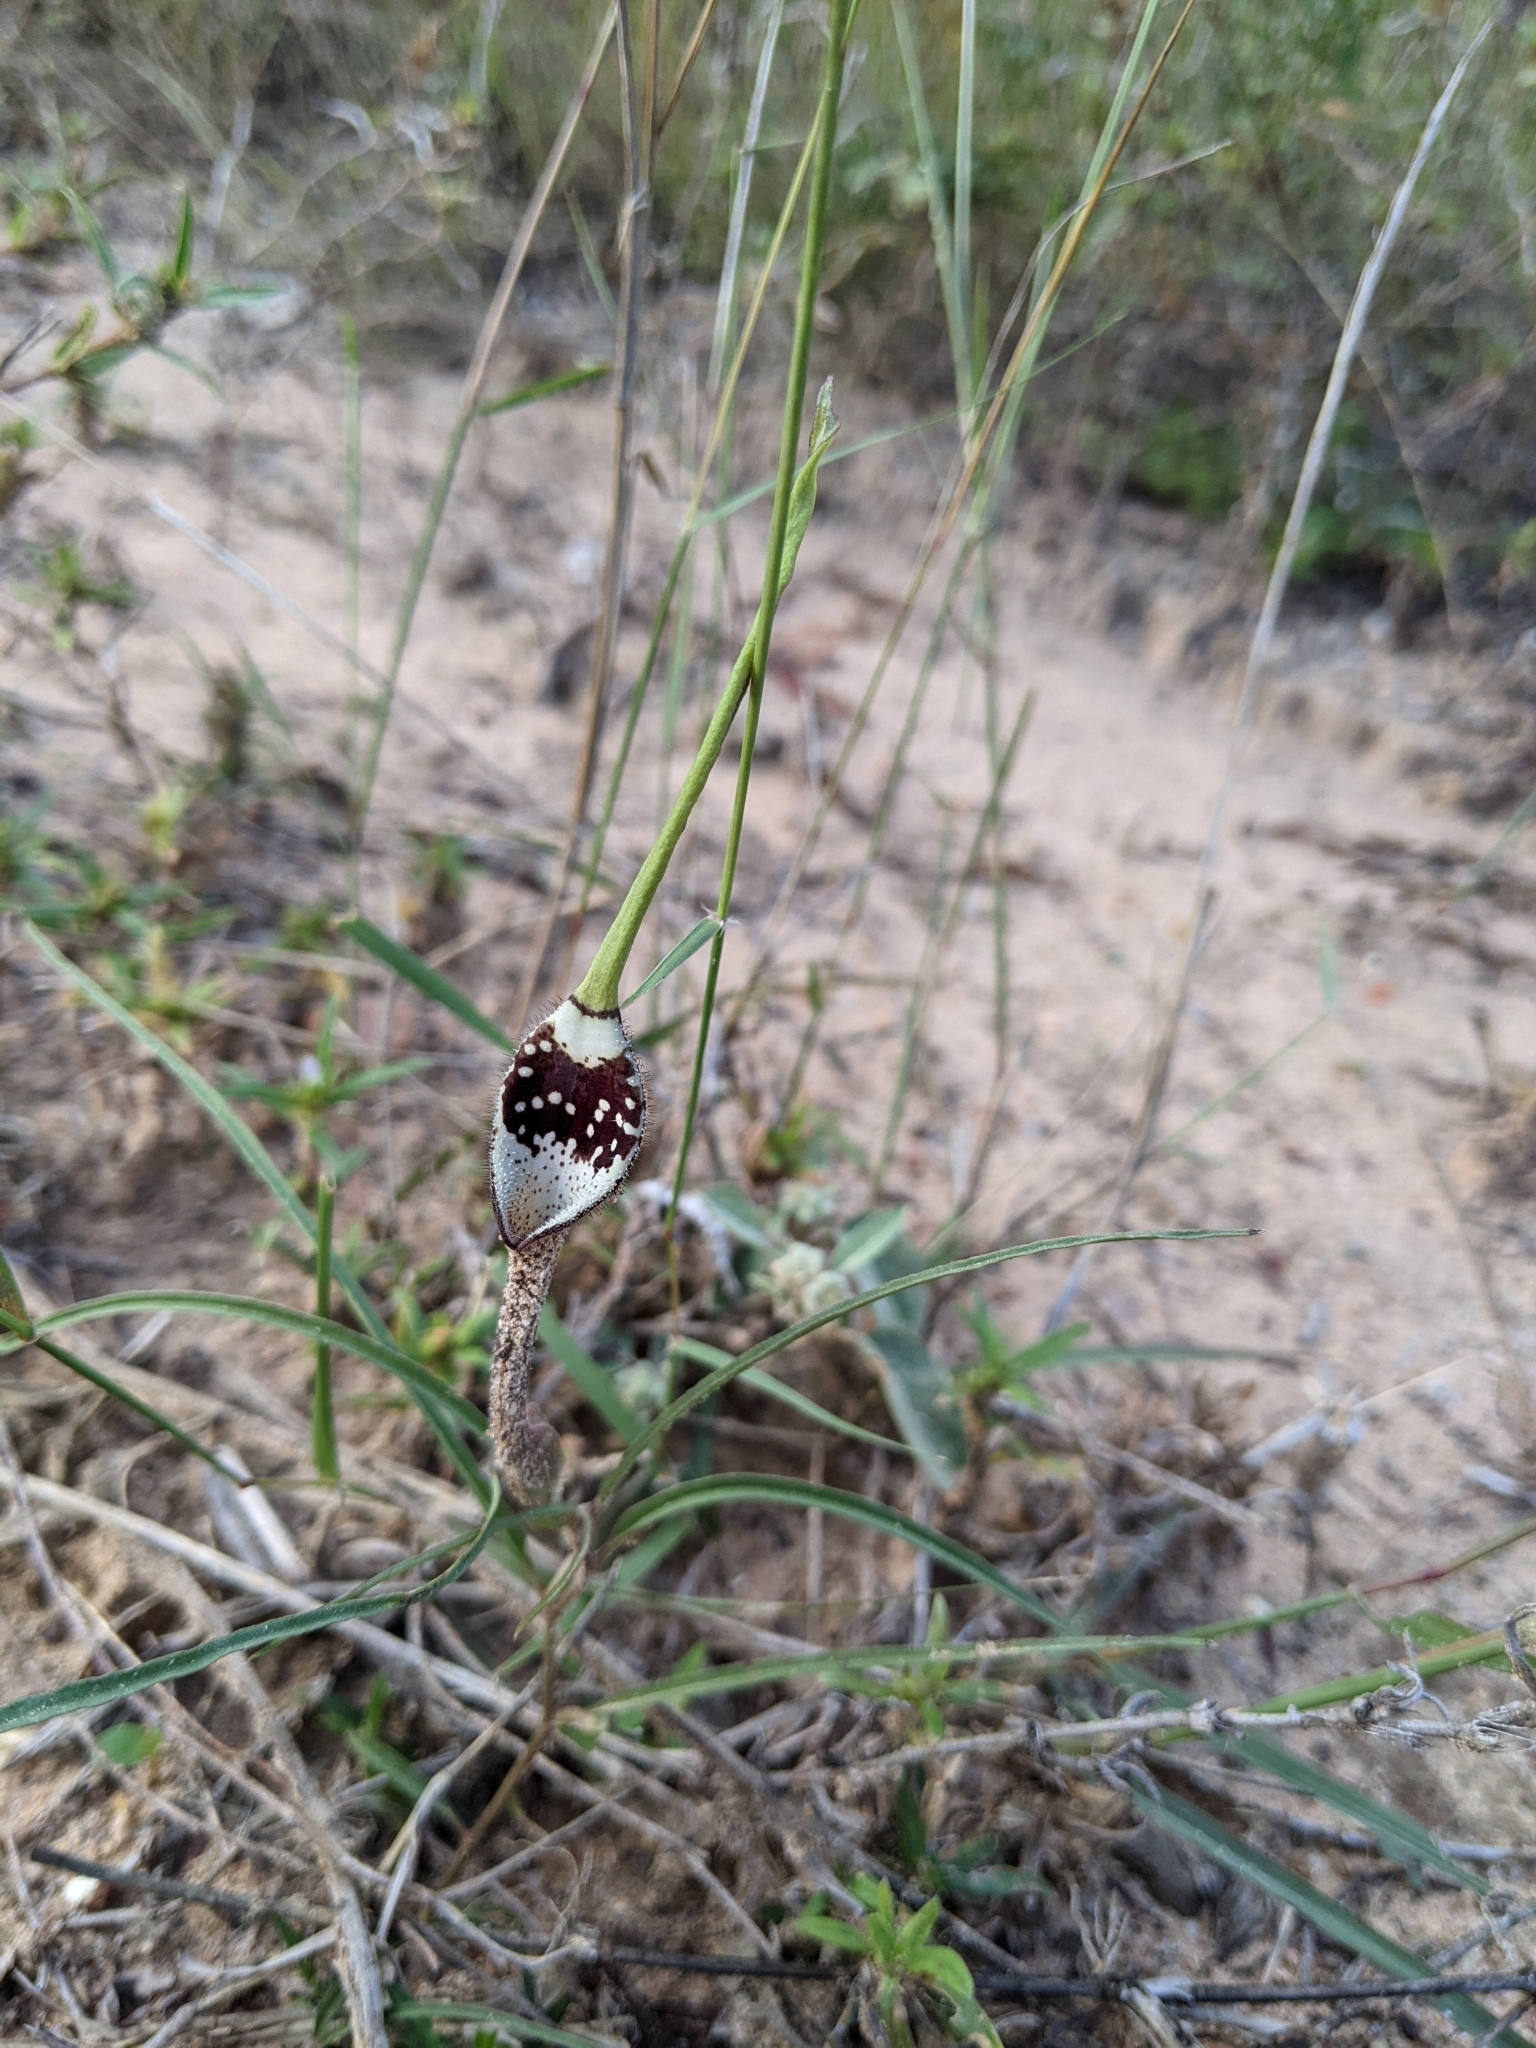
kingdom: Plantae
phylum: Tracheophyta
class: Magnoliopsida
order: Piperales
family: Aristolochiaceae
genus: Aristolochia
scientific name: Aristolochia erecta
